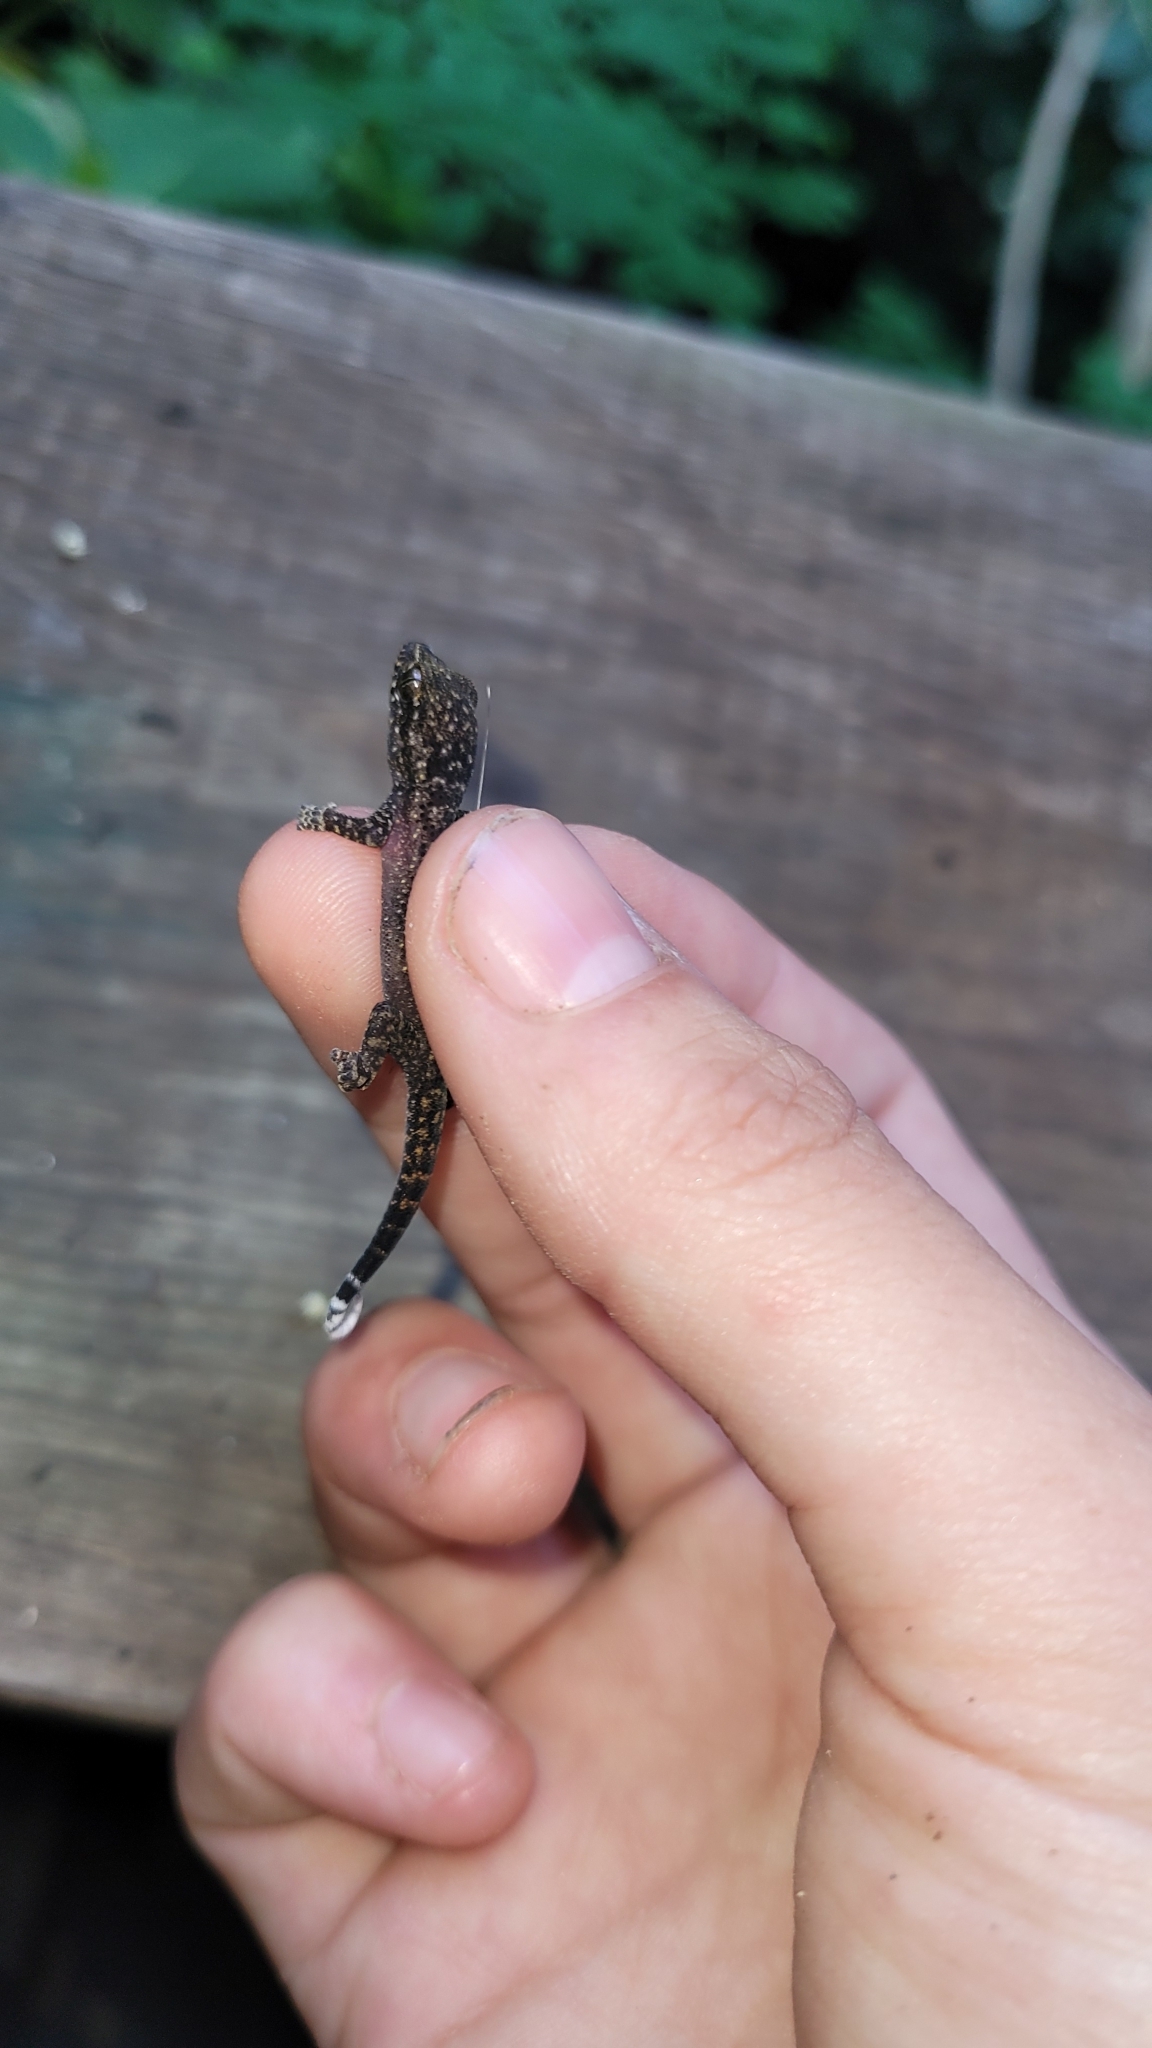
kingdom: Animalia
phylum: Chordata
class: Squamata
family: Phyllodactylidae
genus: Phyllodactylus
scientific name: Phyllodactylus palmeus
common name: Honduras leaf-toed gecko
